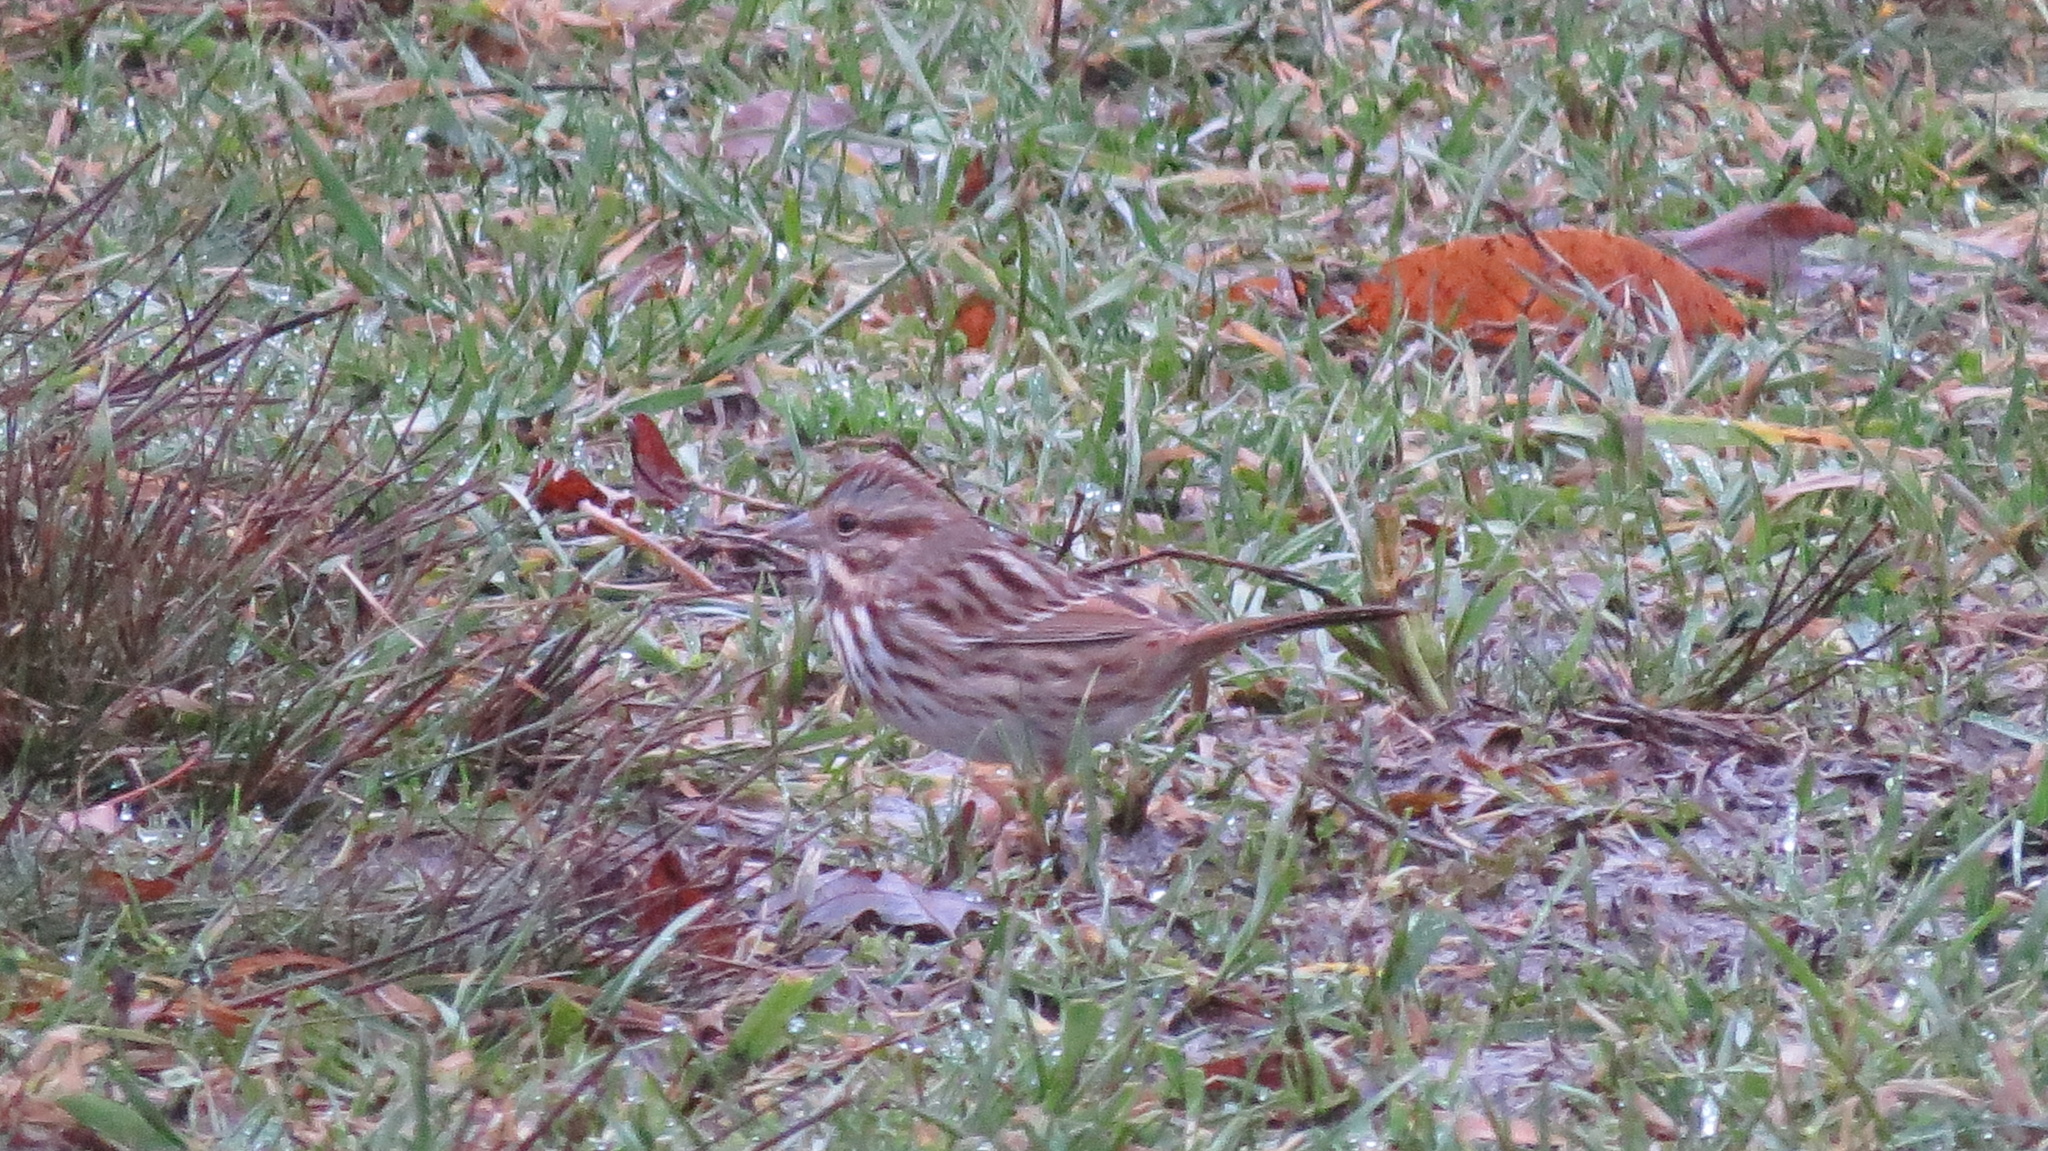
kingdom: Animalia
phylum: Chordata
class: Aves
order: Passeriformes
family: Passerellidae
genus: Melospiza
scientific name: Melospiza melodia
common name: Song sparrow
